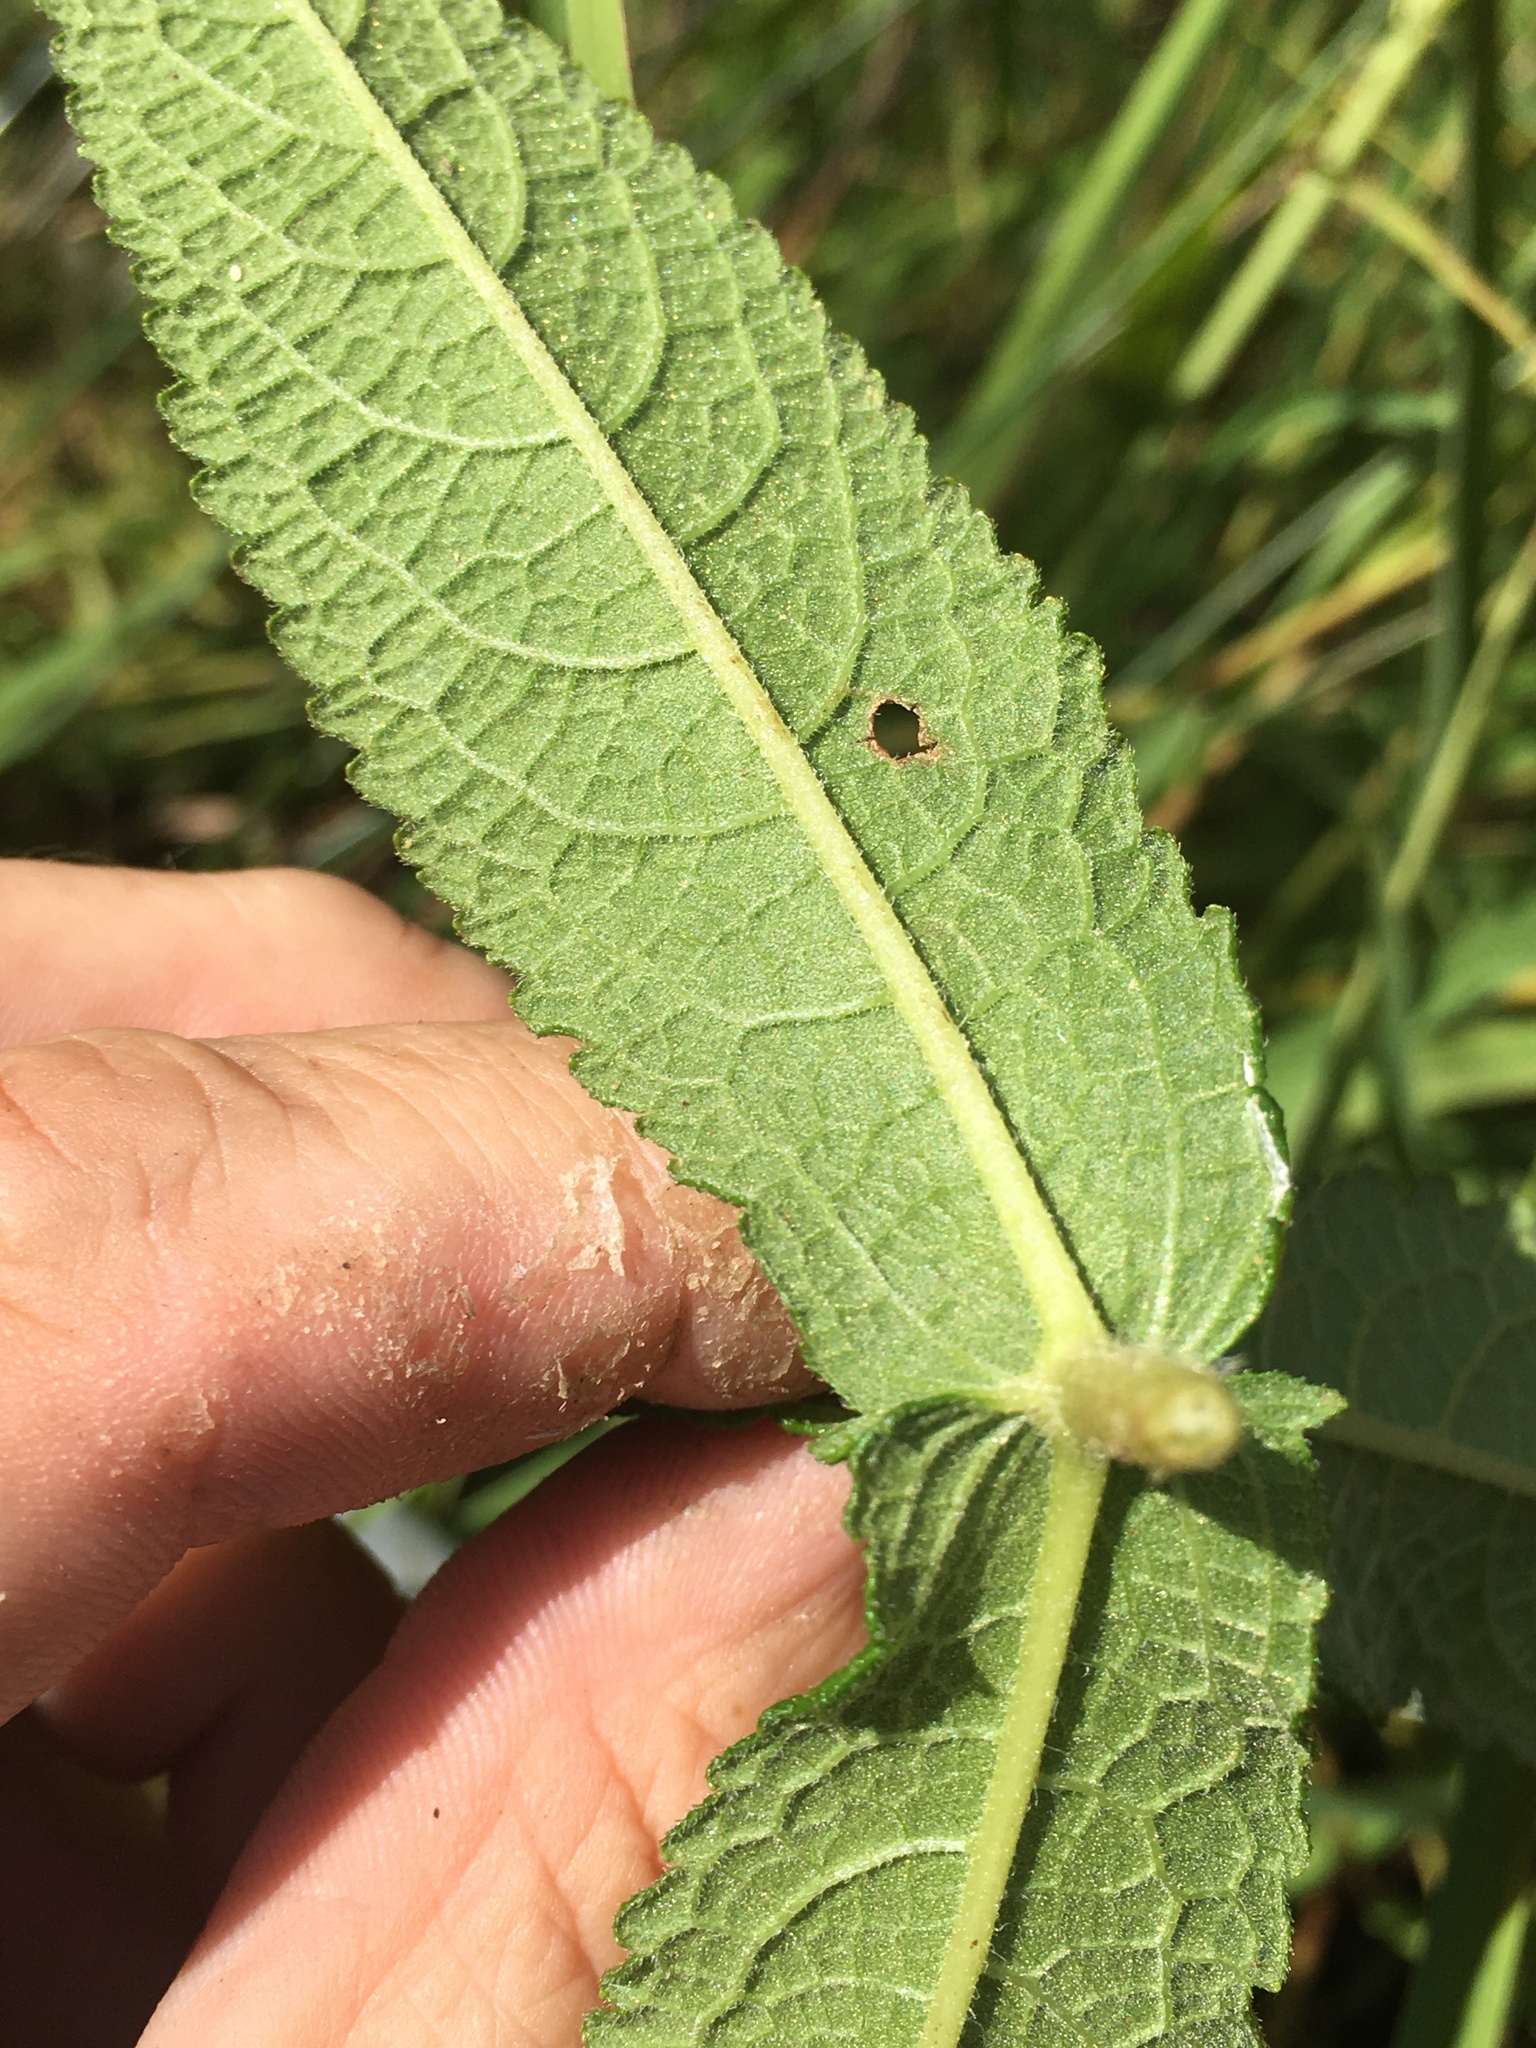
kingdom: Plantae
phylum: Tracheophyta
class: Magnoliopsida
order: Asterales
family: Asteraceae
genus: Eupatorium
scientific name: Eupatorium perfoliatum
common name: Boneset
